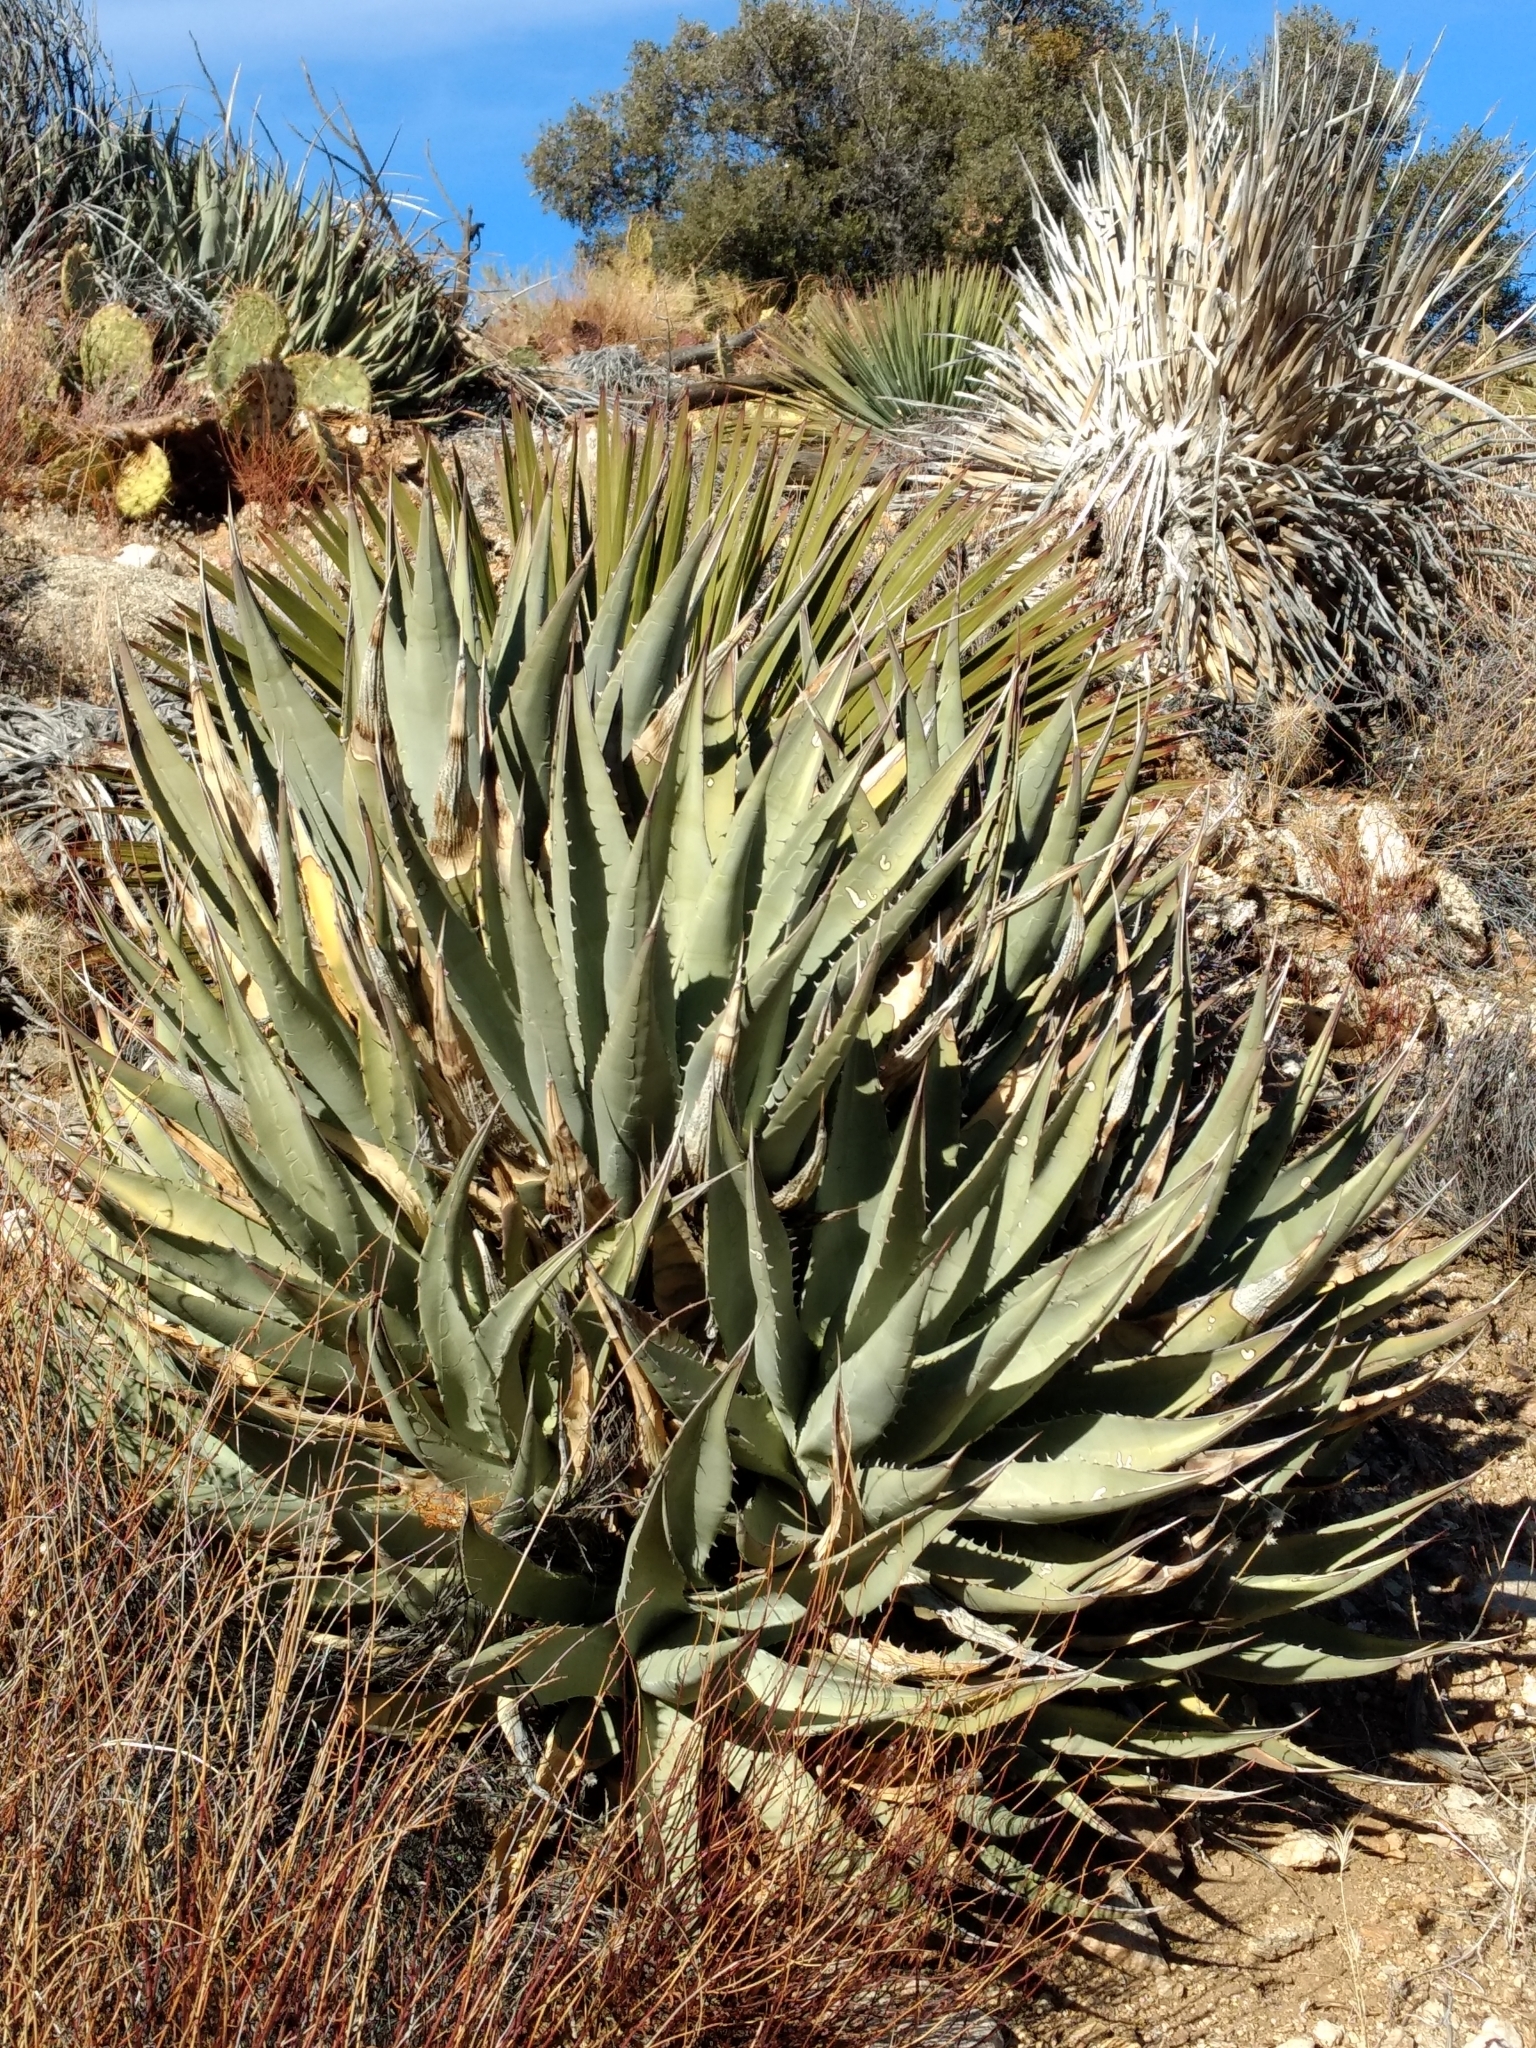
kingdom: Plantae
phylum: Tracheophyta
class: Liliopsida
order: Asparagales
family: Asparagaceae
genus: Agave
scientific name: Agave deserti
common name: Desert agave
